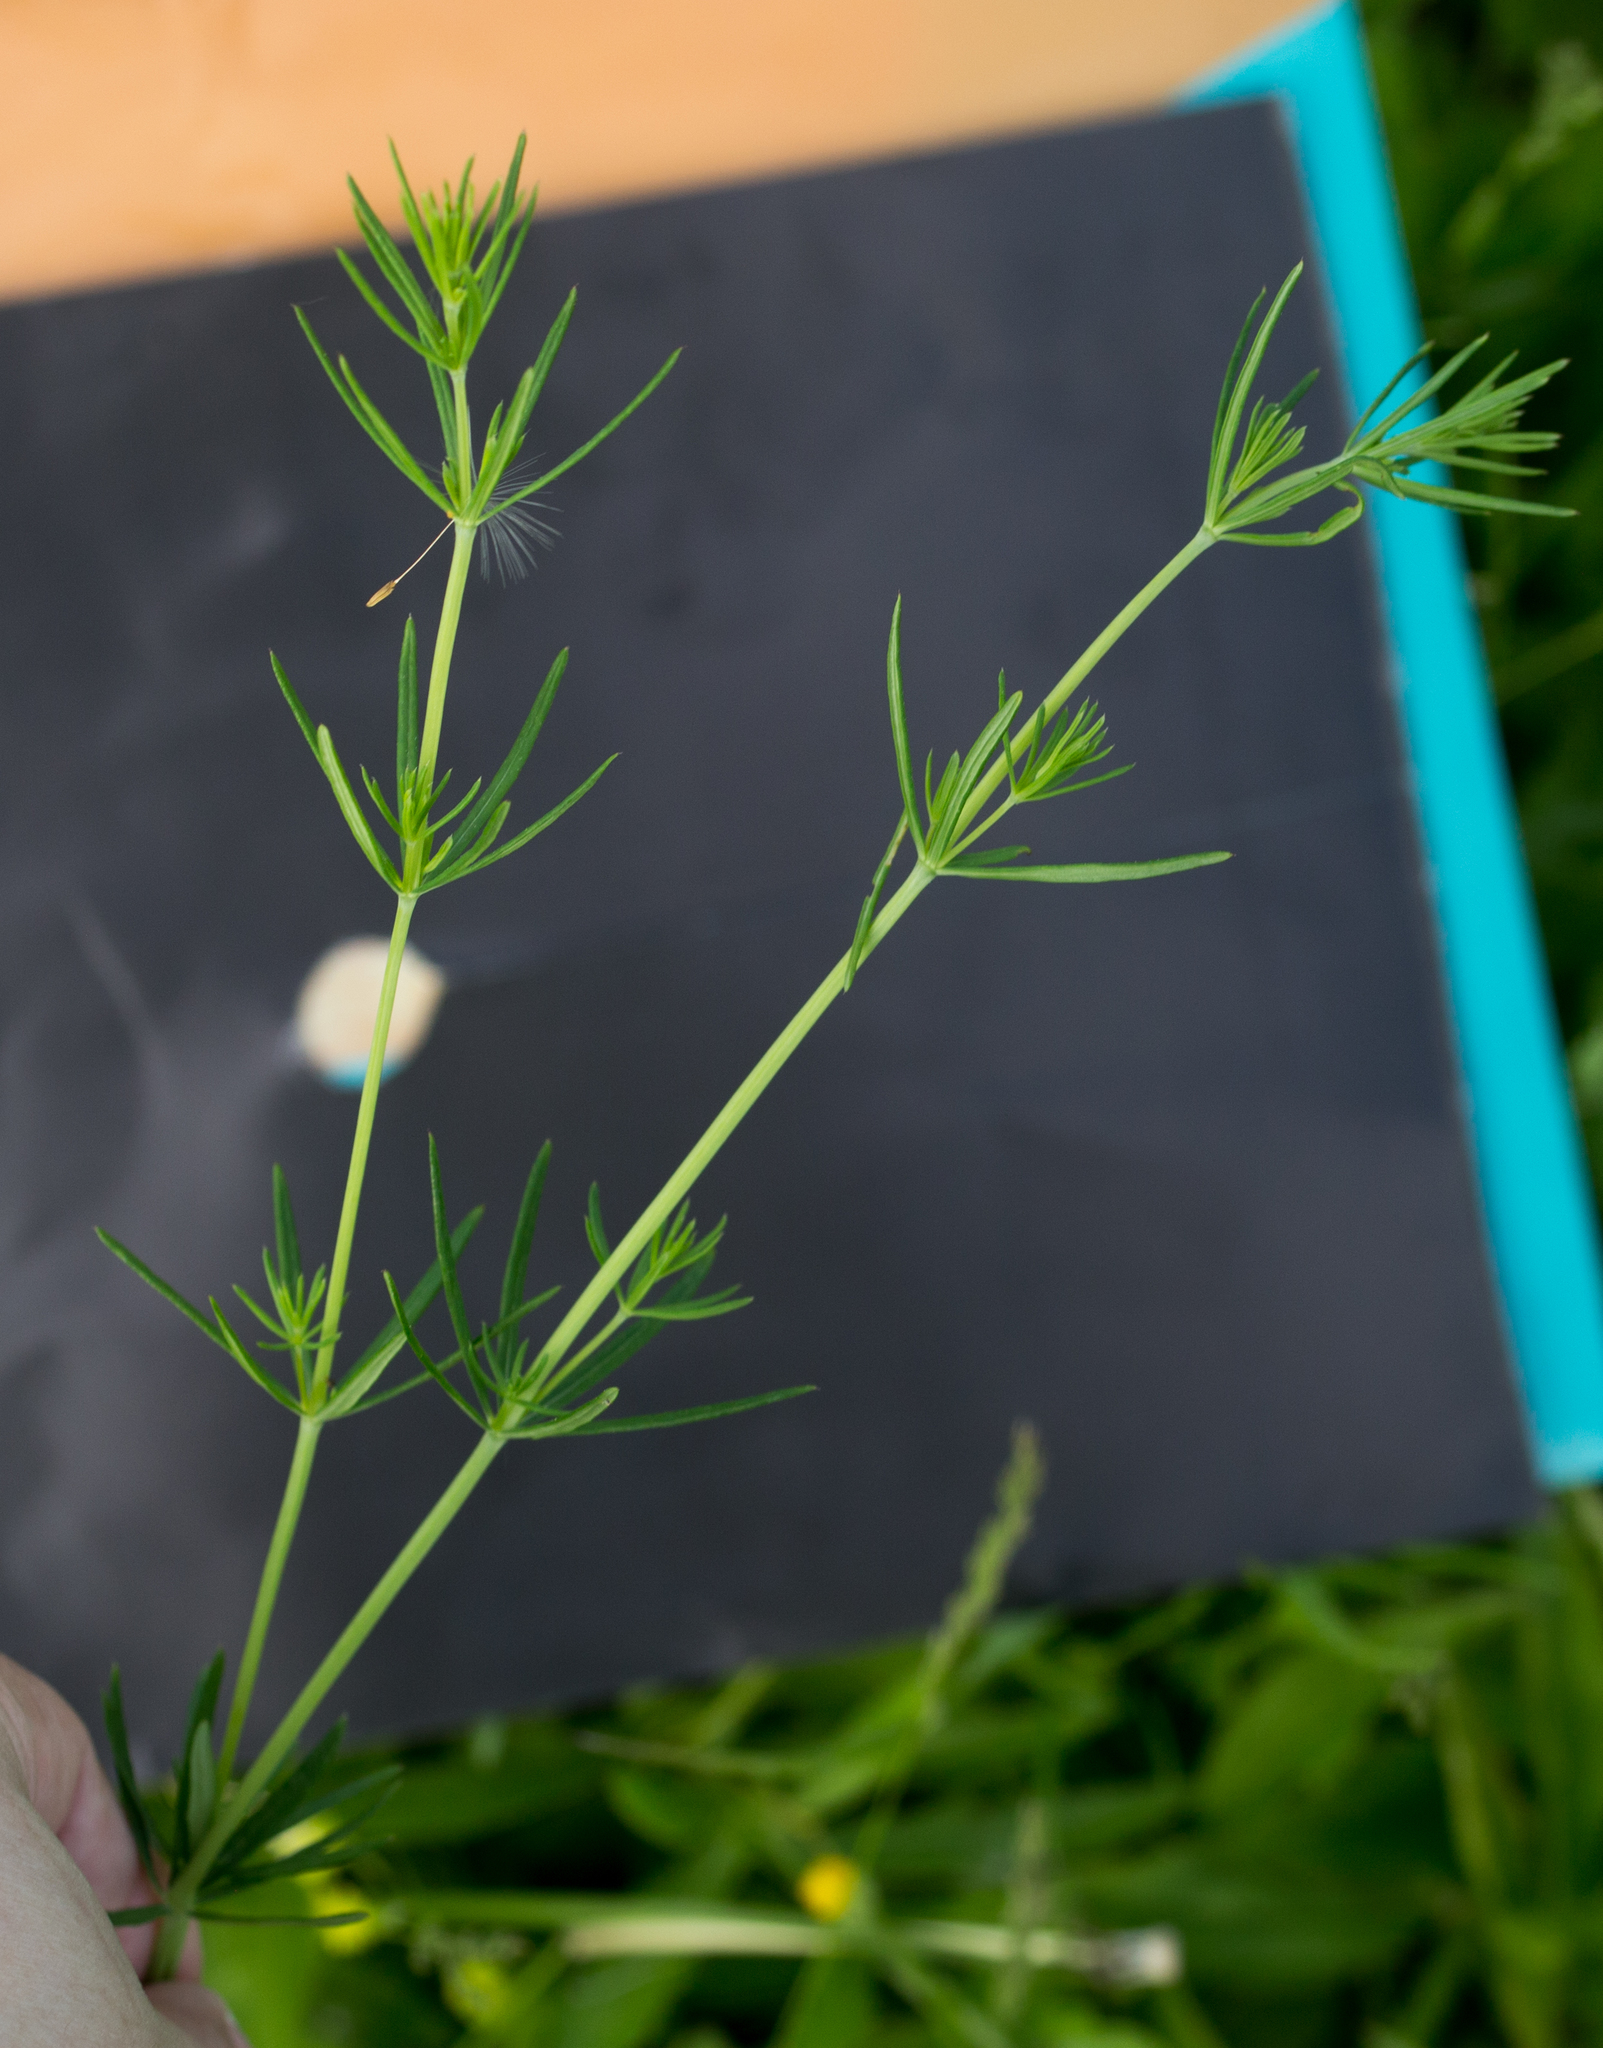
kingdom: Plantae
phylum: Tracheophyta
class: Magnoliopsida
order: Gentianales
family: Rubiaceae
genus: Galium
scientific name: Galium verum
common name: Lady's bedstraw
